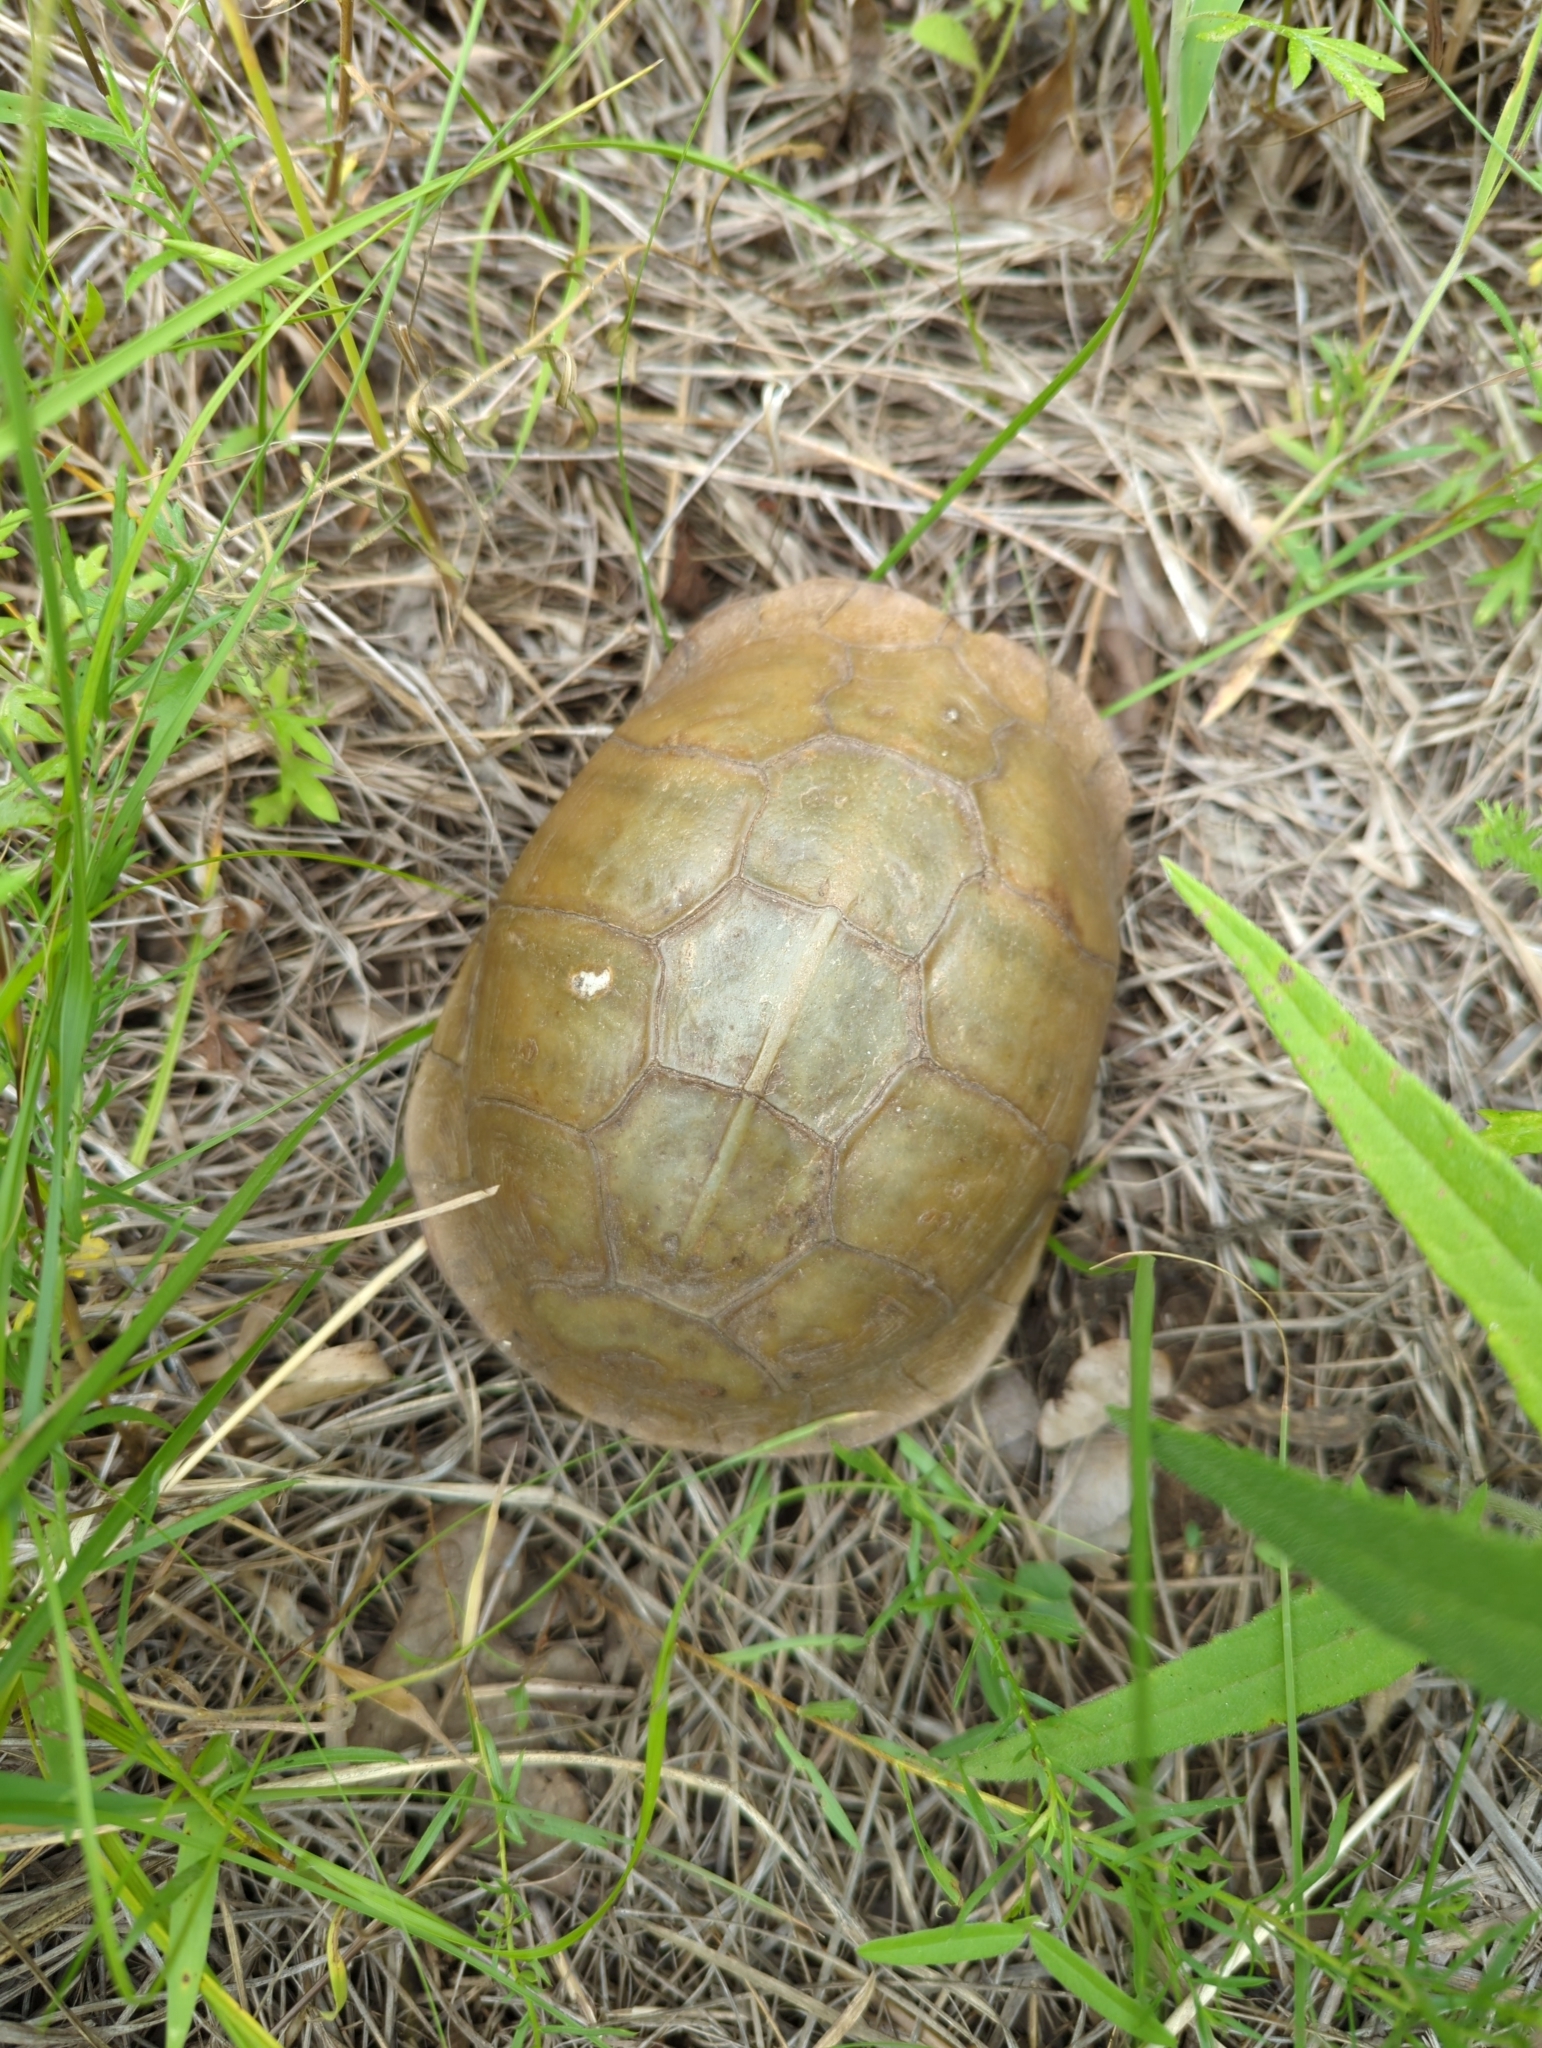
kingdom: Animalia
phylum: Chordata
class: Testudines
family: Emydidae
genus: Terrapene
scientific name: Terrapene carolina
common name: Common box turtle
